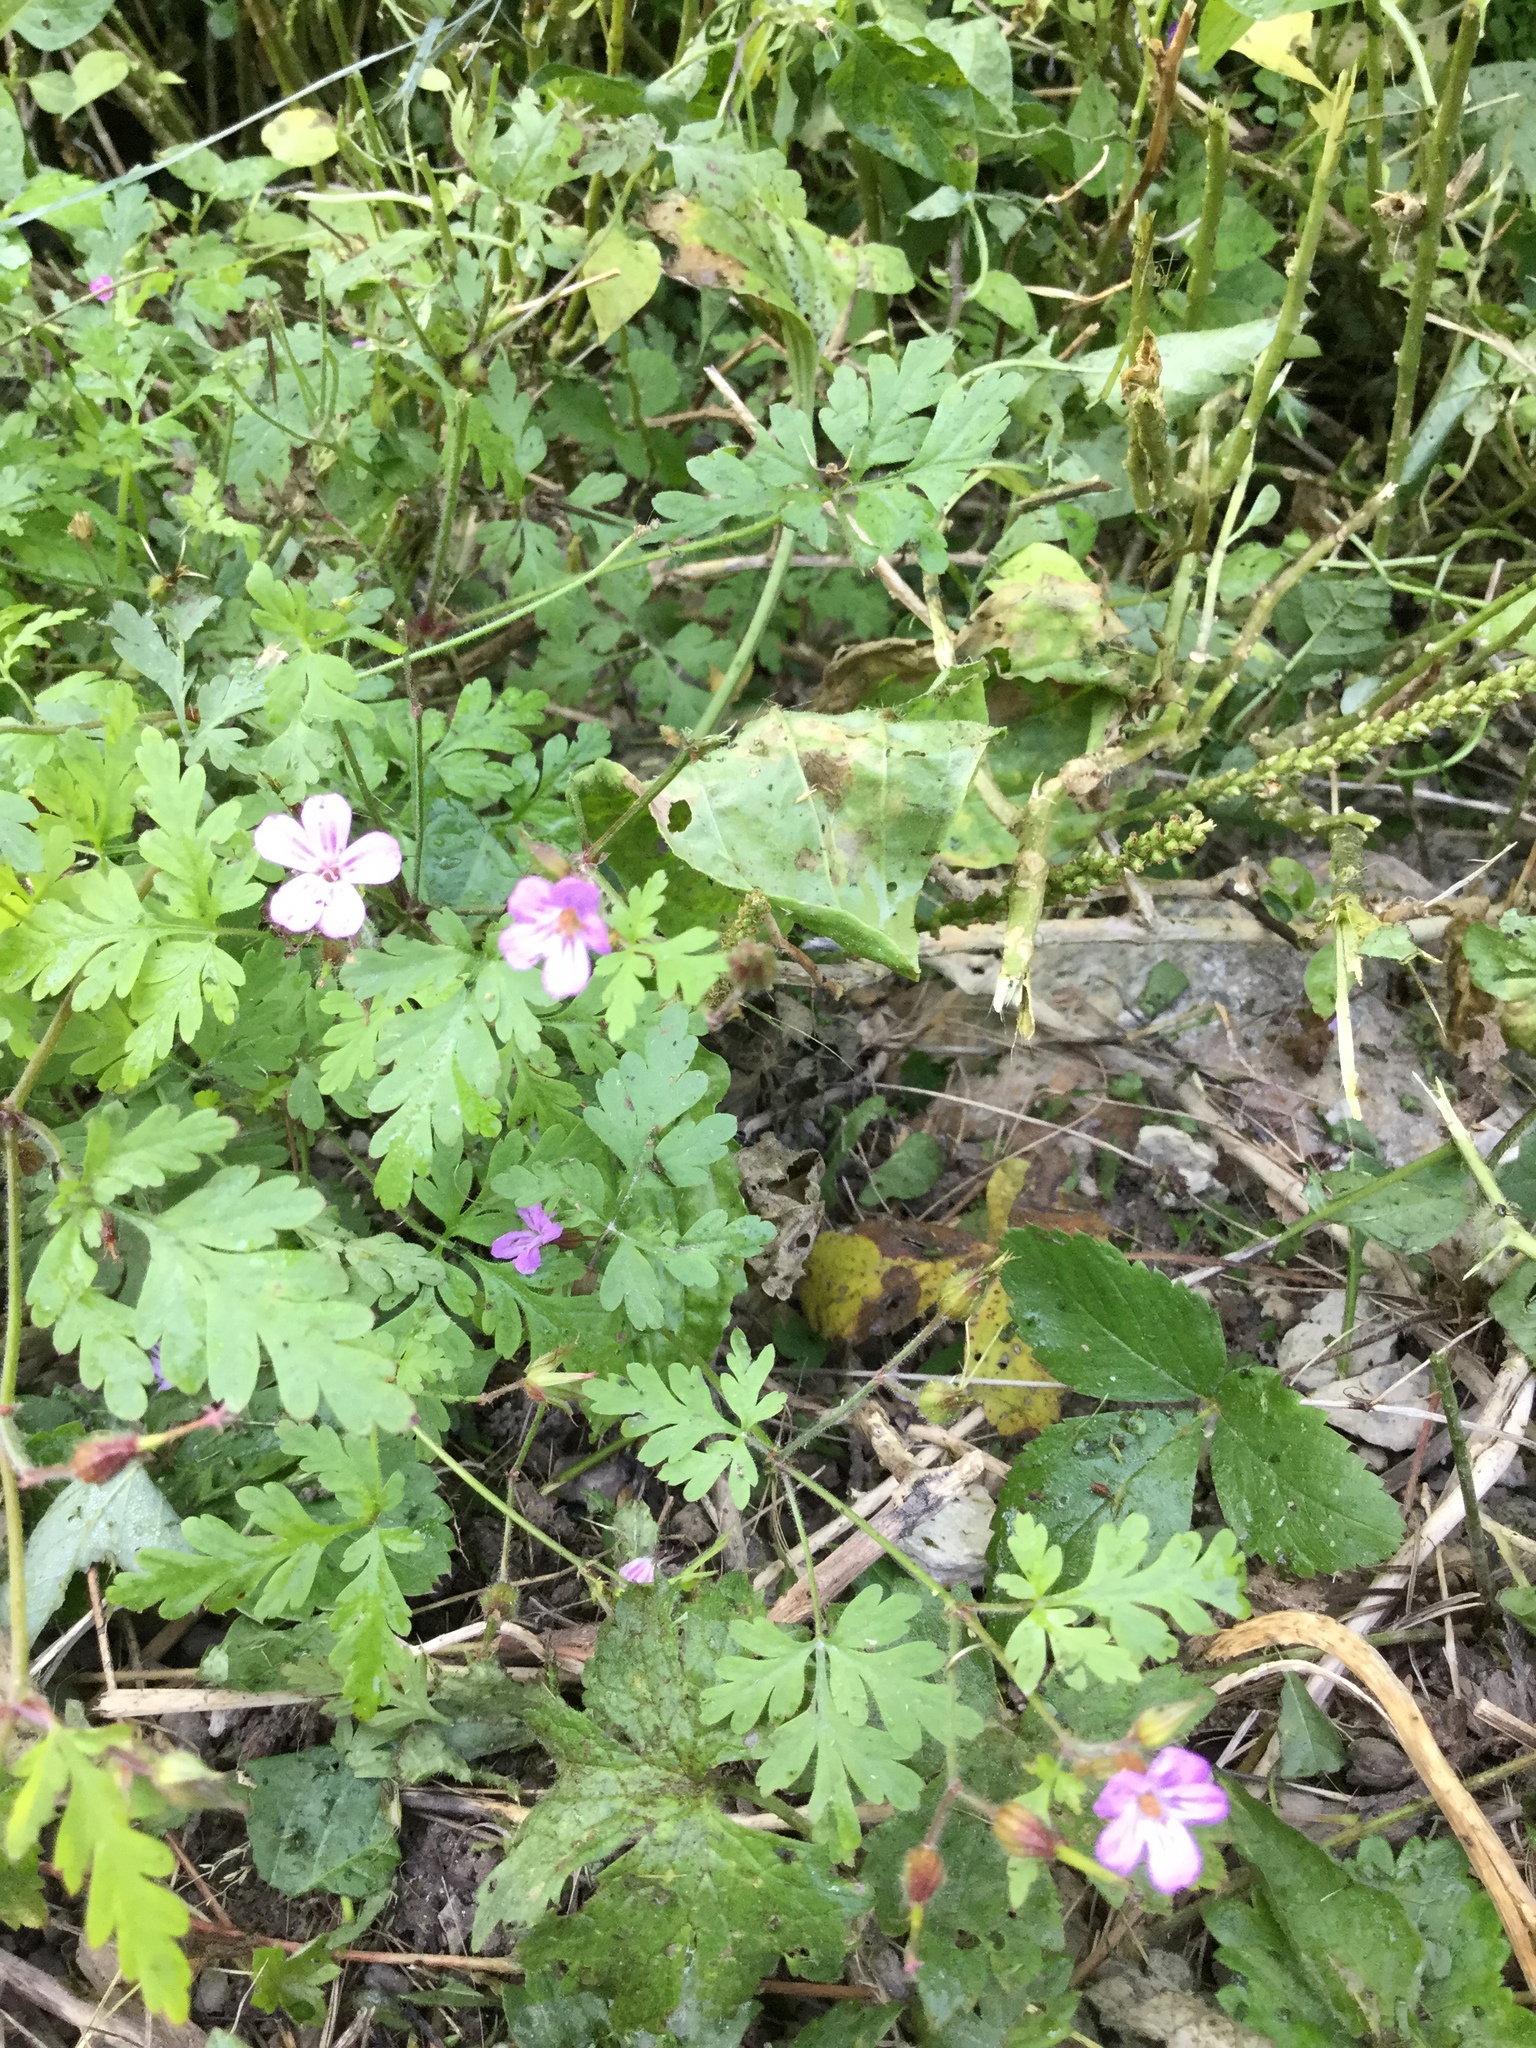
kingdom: Plantae
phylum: Tracheophyta
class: Magnoliopsida
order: Geraniales
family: Geraniaceae
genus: Geranium
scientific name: Geranium robertianum
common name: Herb-robert
